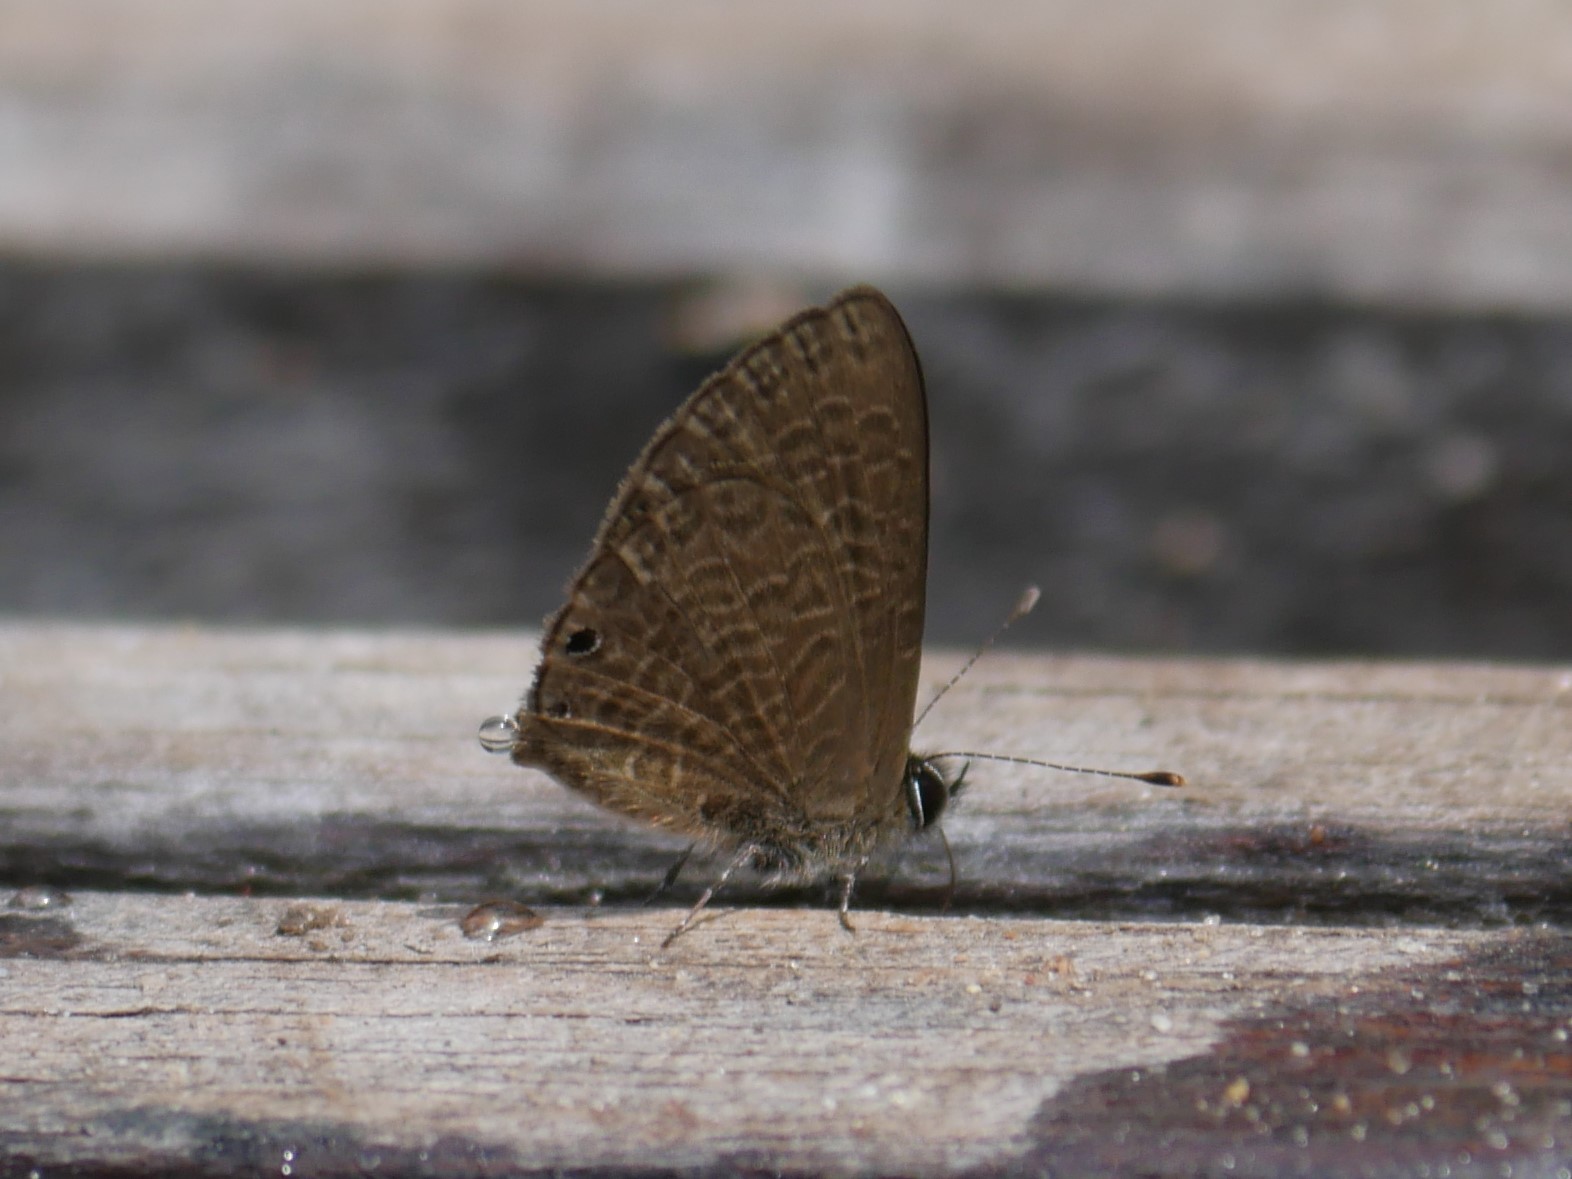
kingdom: Animalia
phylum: Arthropoda
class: Insecta
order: Lepidoptera
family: Lycaenidae
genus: Pseudonacaduba
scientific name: Pseudonacaduba aethiops
